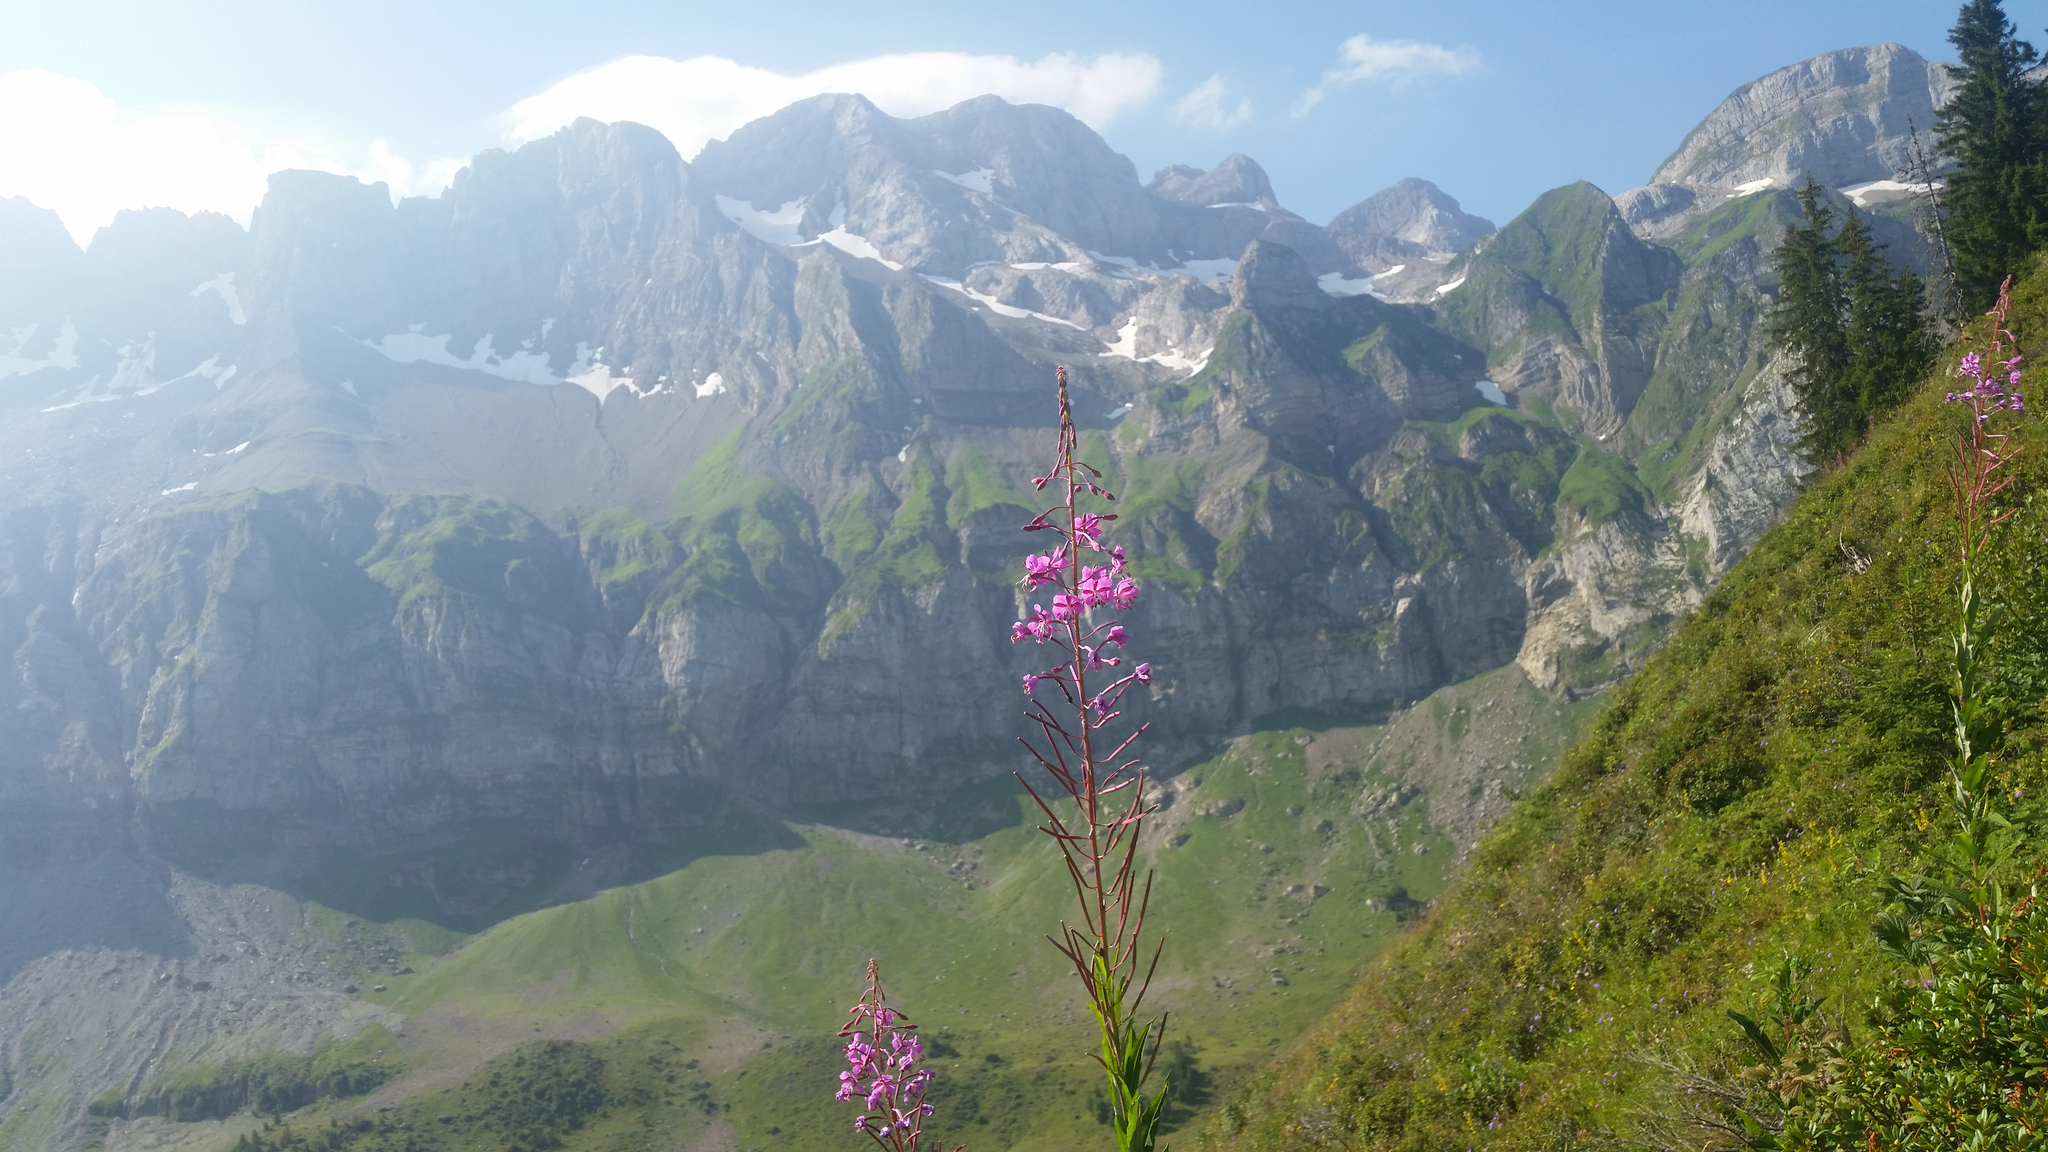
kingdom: Plantae
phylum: Tracheophyta
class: Magnoliopsida
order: Myrtales
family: Onagraceae
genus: Chamaenerion
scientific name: Chamaenerion angustifolium
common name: Fireweed
